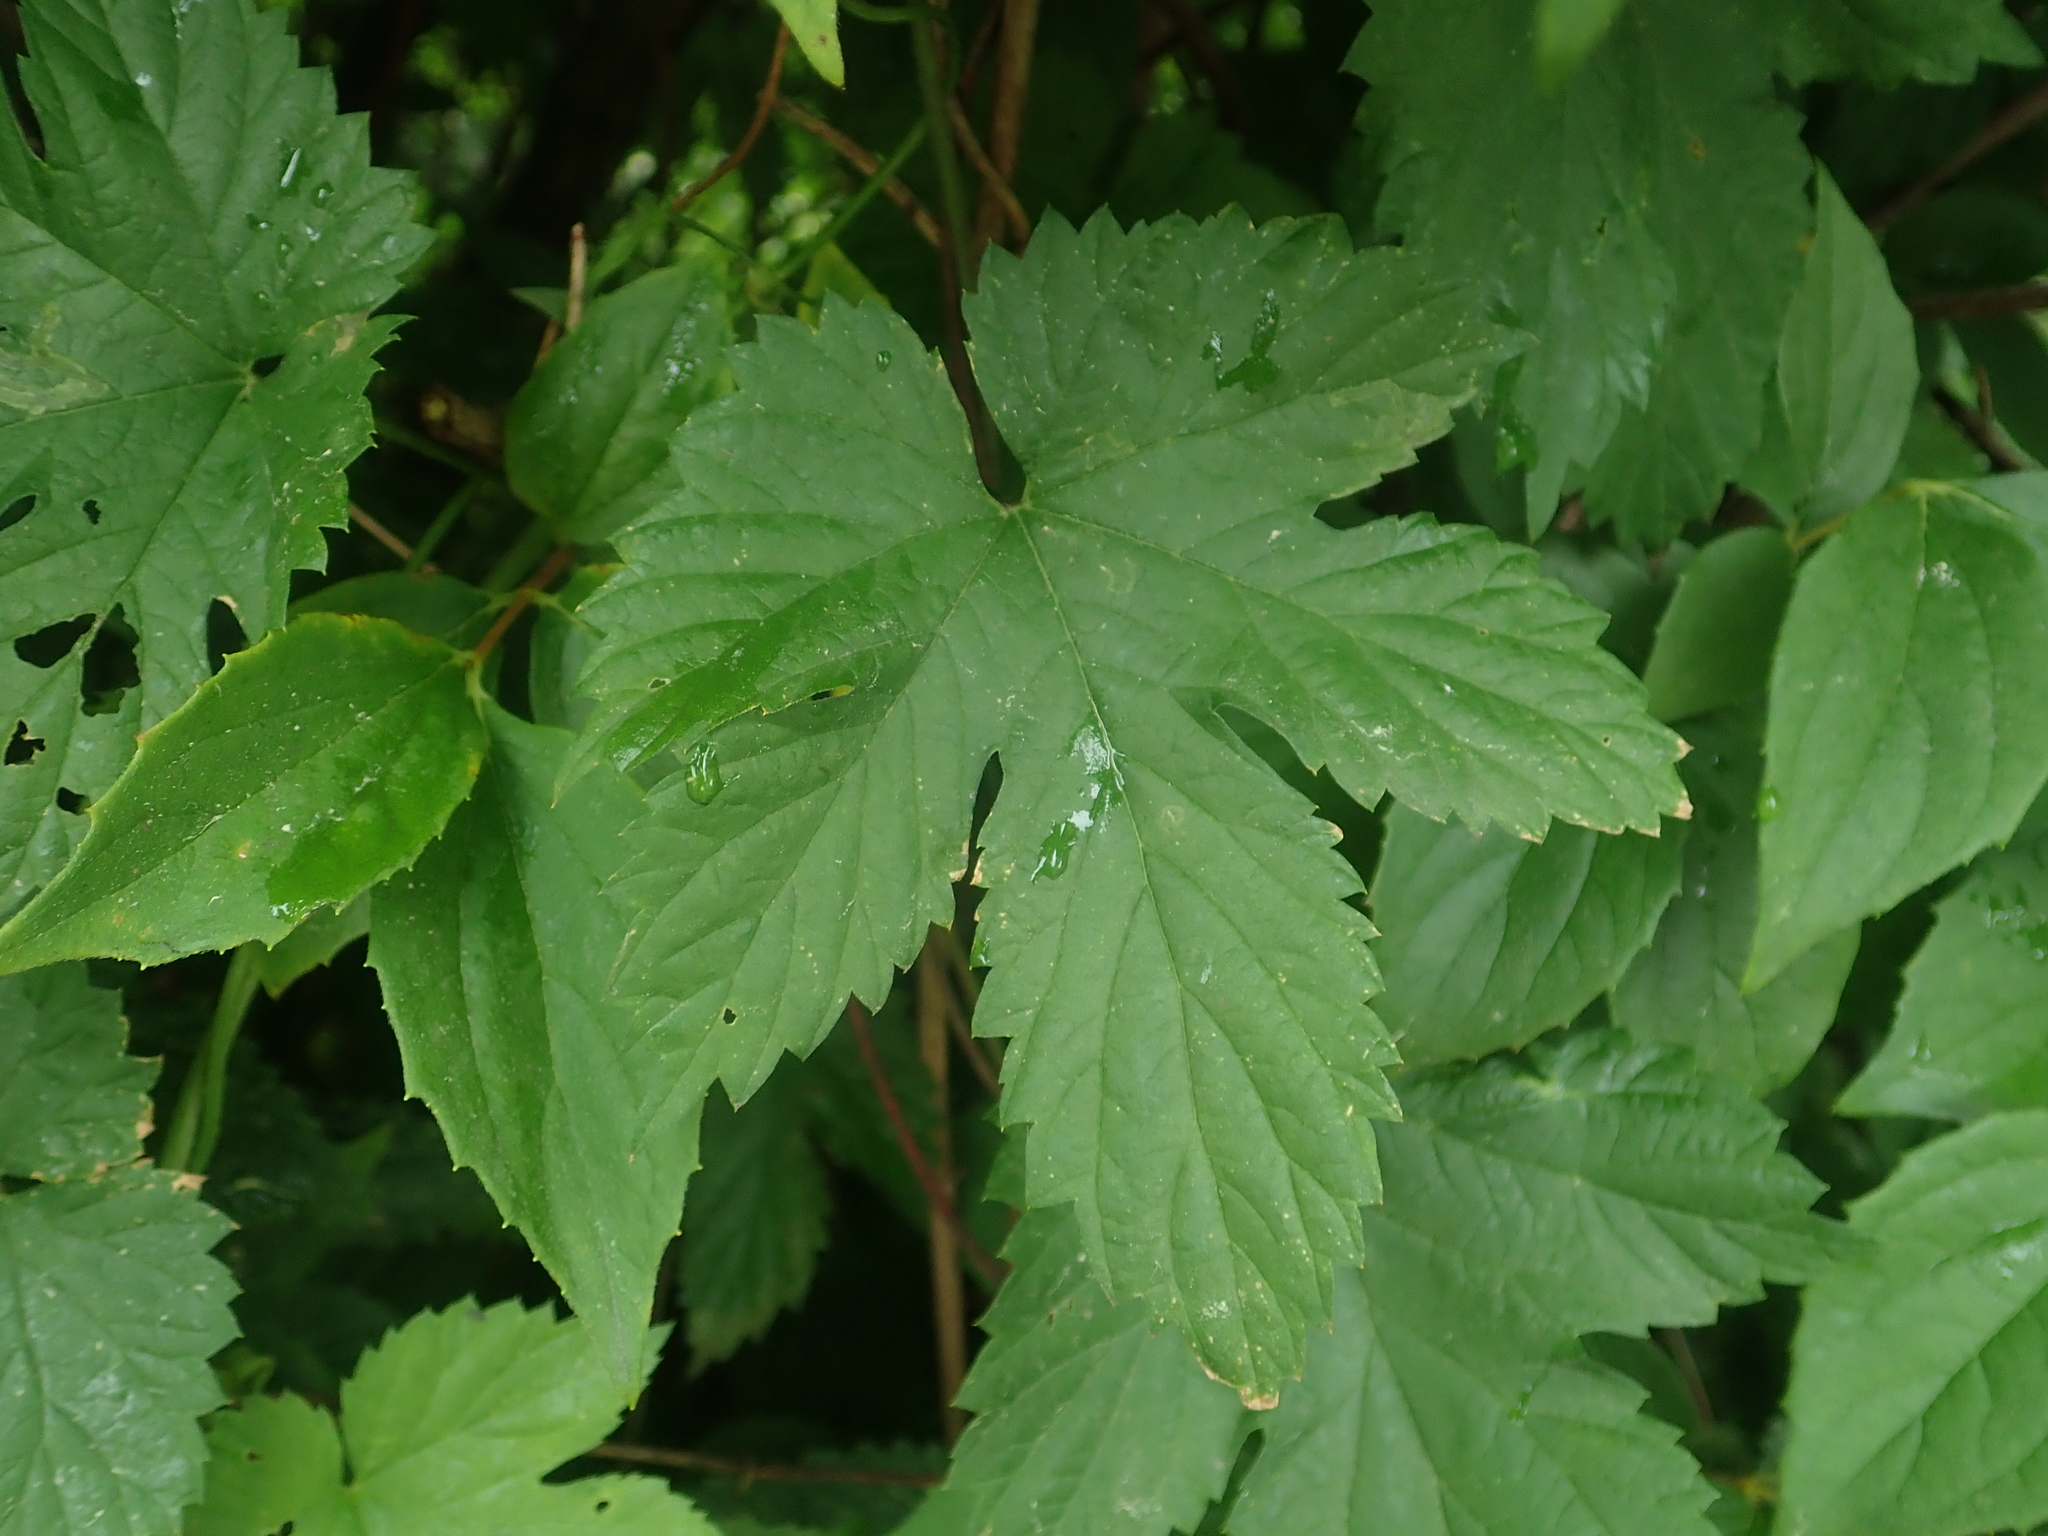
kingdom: Plantae
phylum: Tracheophyta
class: Magnoliopsida
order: Rosales
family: Cannabaceae
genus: Humulus
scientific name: Humulus lupulus
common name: Hop
